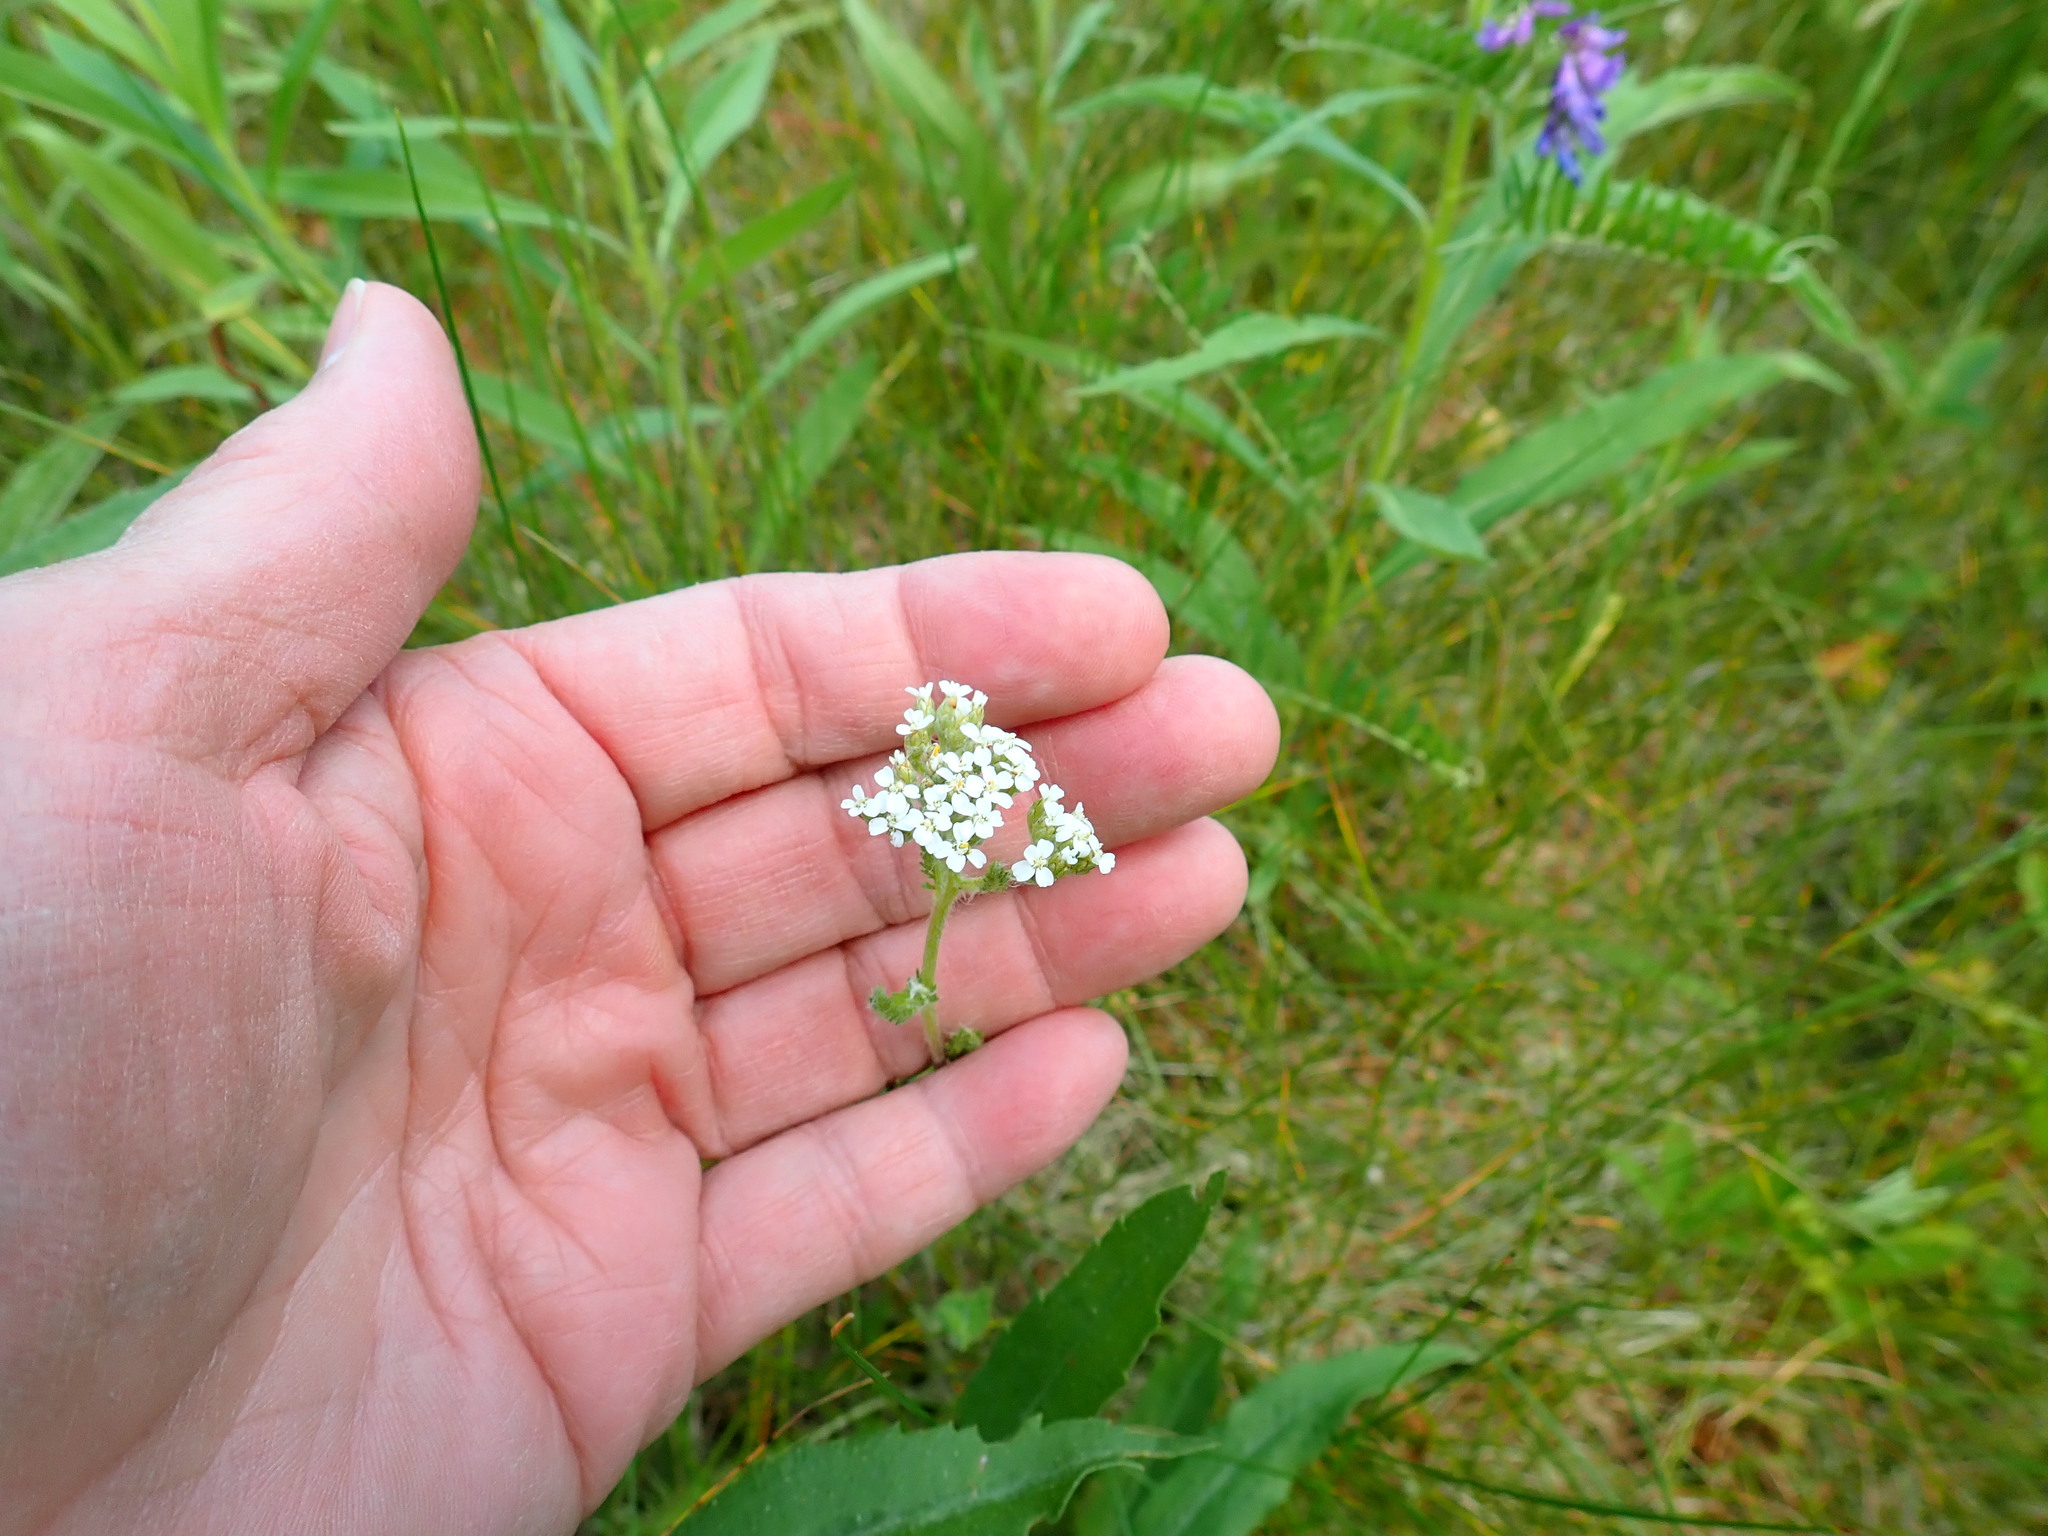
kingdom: Plantae
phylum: Tracheophyta
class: Magnoliopsida
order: Asterales
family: Asteraceae
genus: Achillea
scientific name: Achillea millefolium
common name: Yarrow
